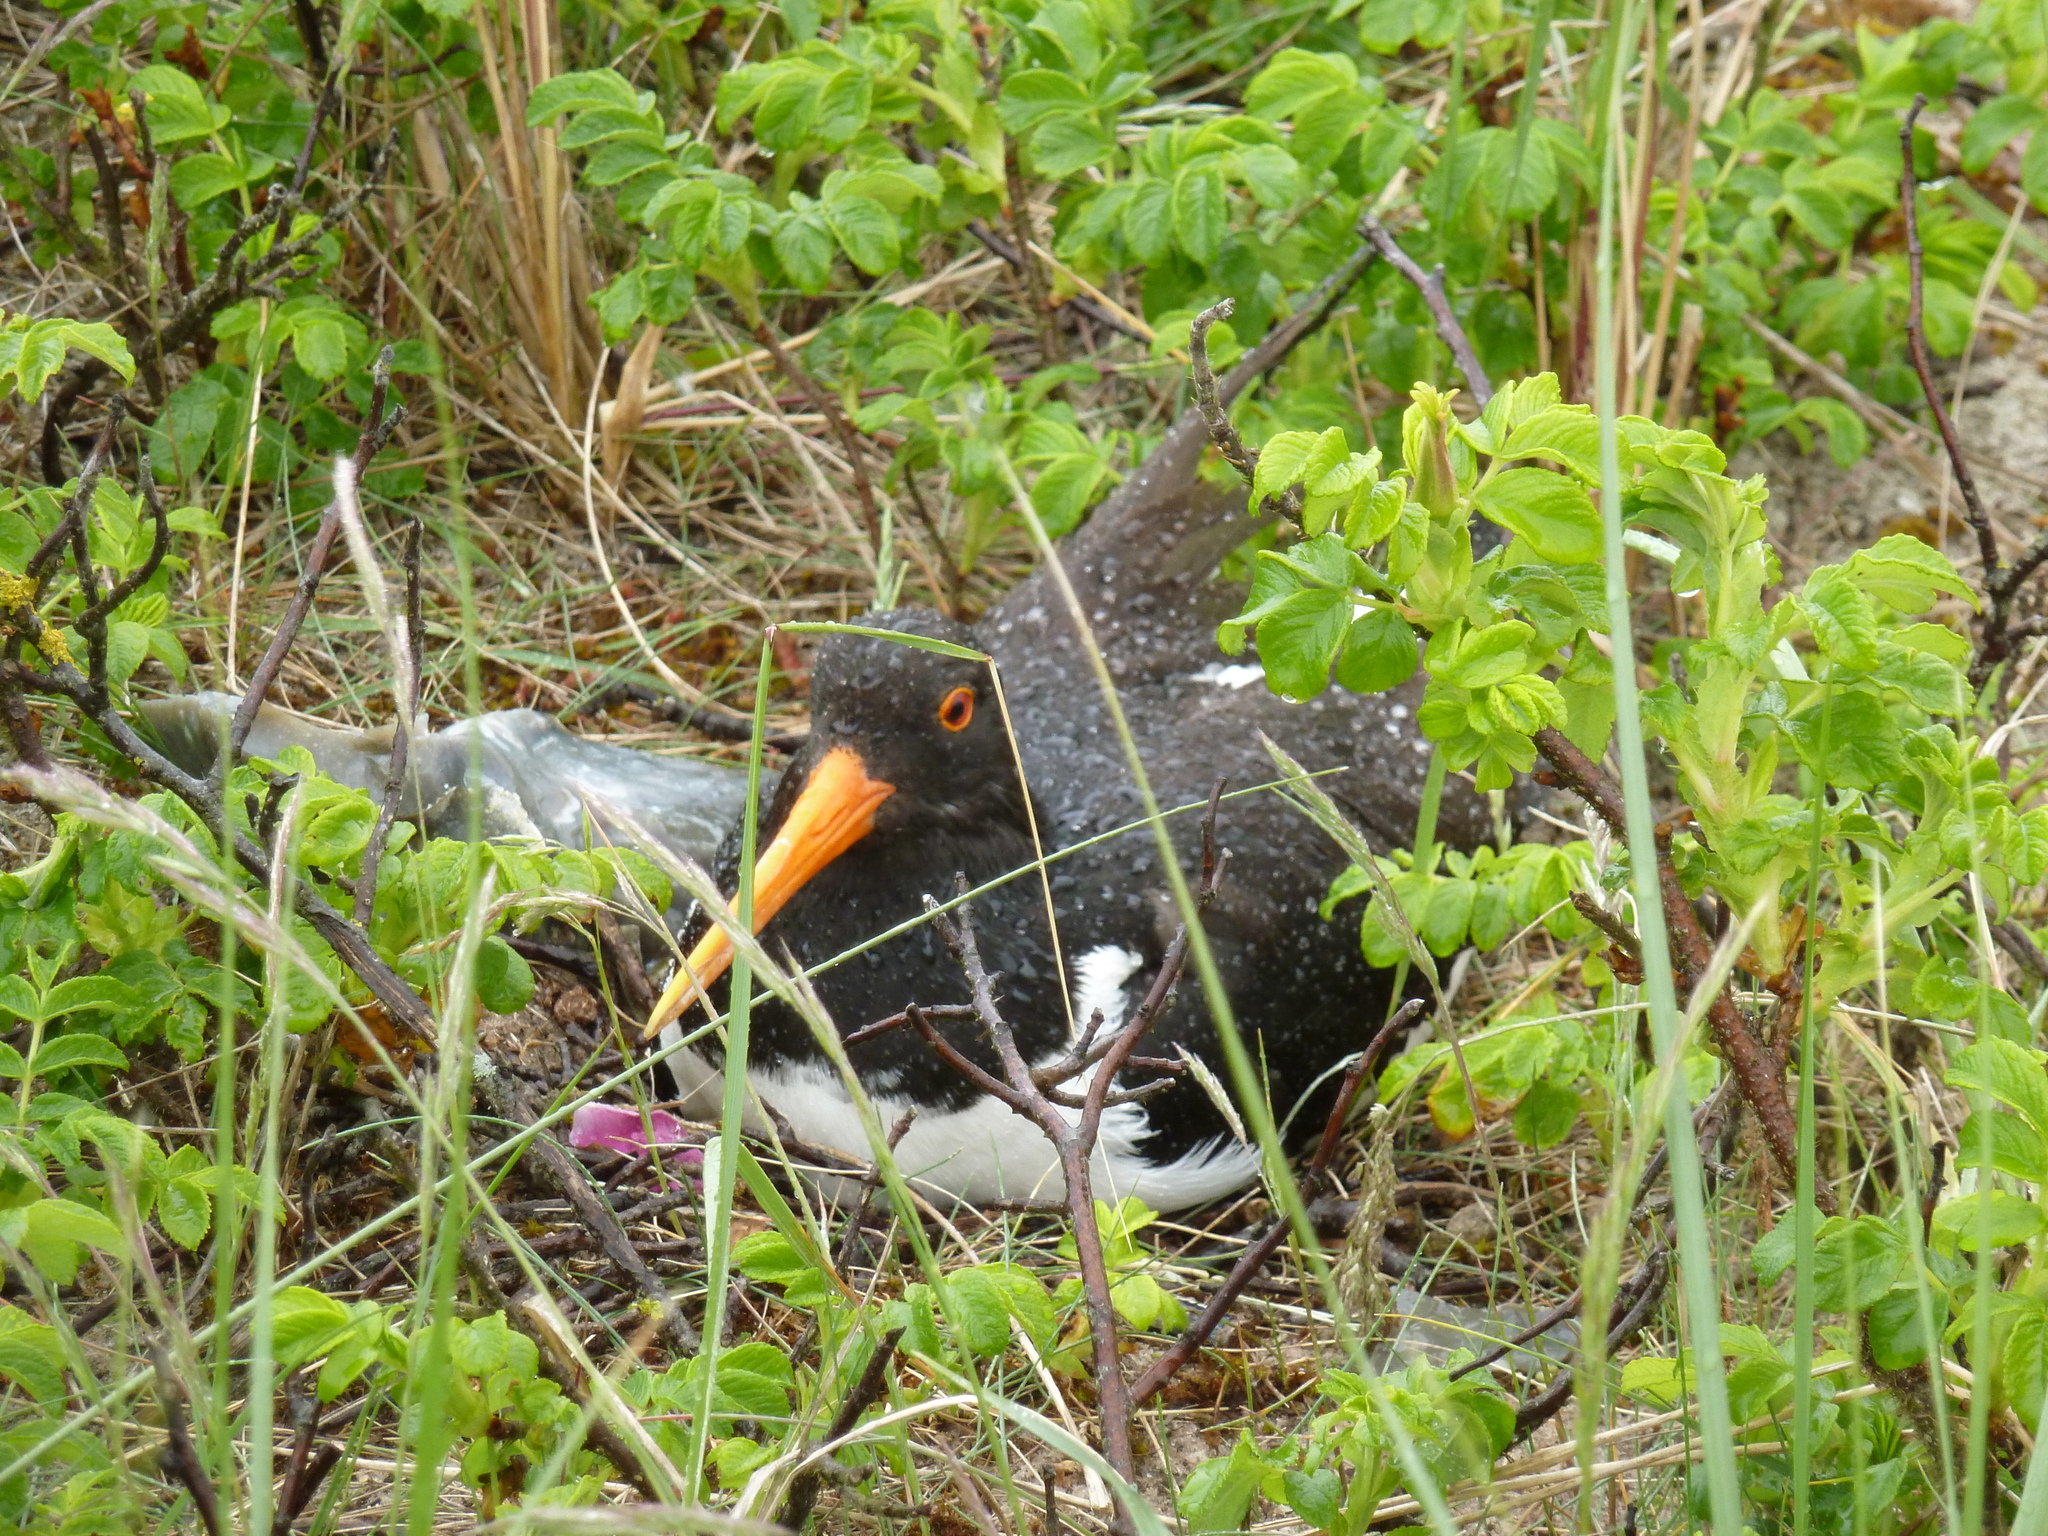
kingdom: Animalia
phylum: Chordata
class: Aves
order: Charadriiformes
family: Haematopodidae
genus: Haematopus
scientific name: Haematopus ostralegus
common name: Eurasian oystercatcher
